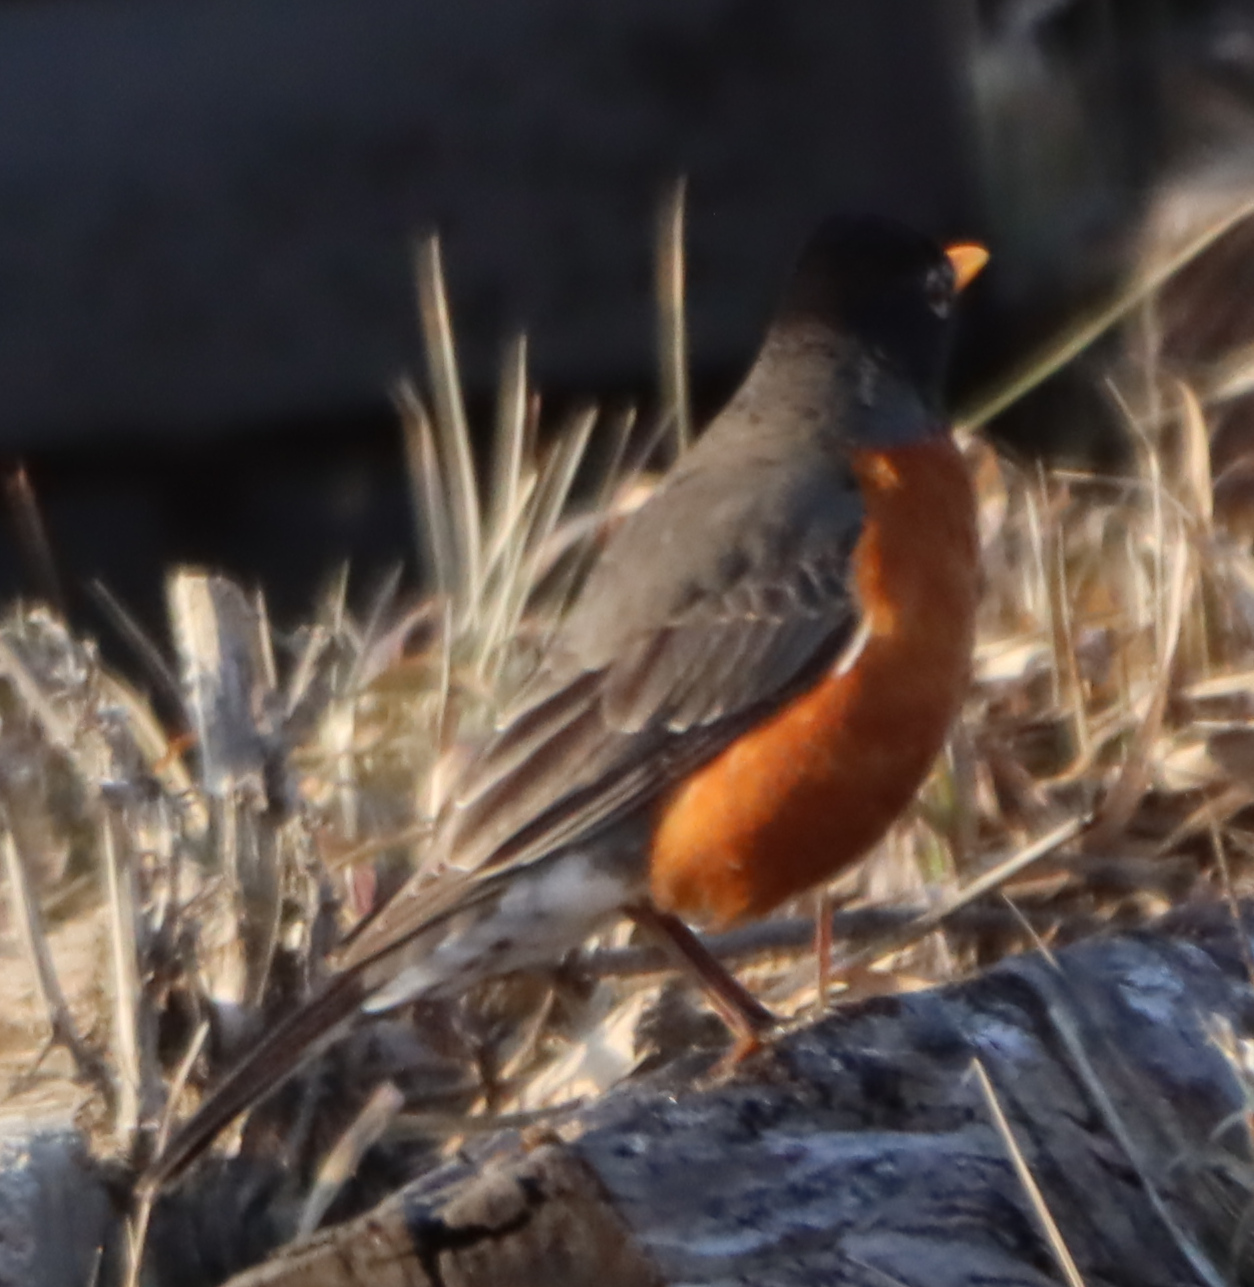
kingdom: Animalia
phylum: Chordata
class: Aves
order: Passeriformes
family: Turdidae
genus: Turdus
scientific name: Turdus migratorius
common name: American robin
